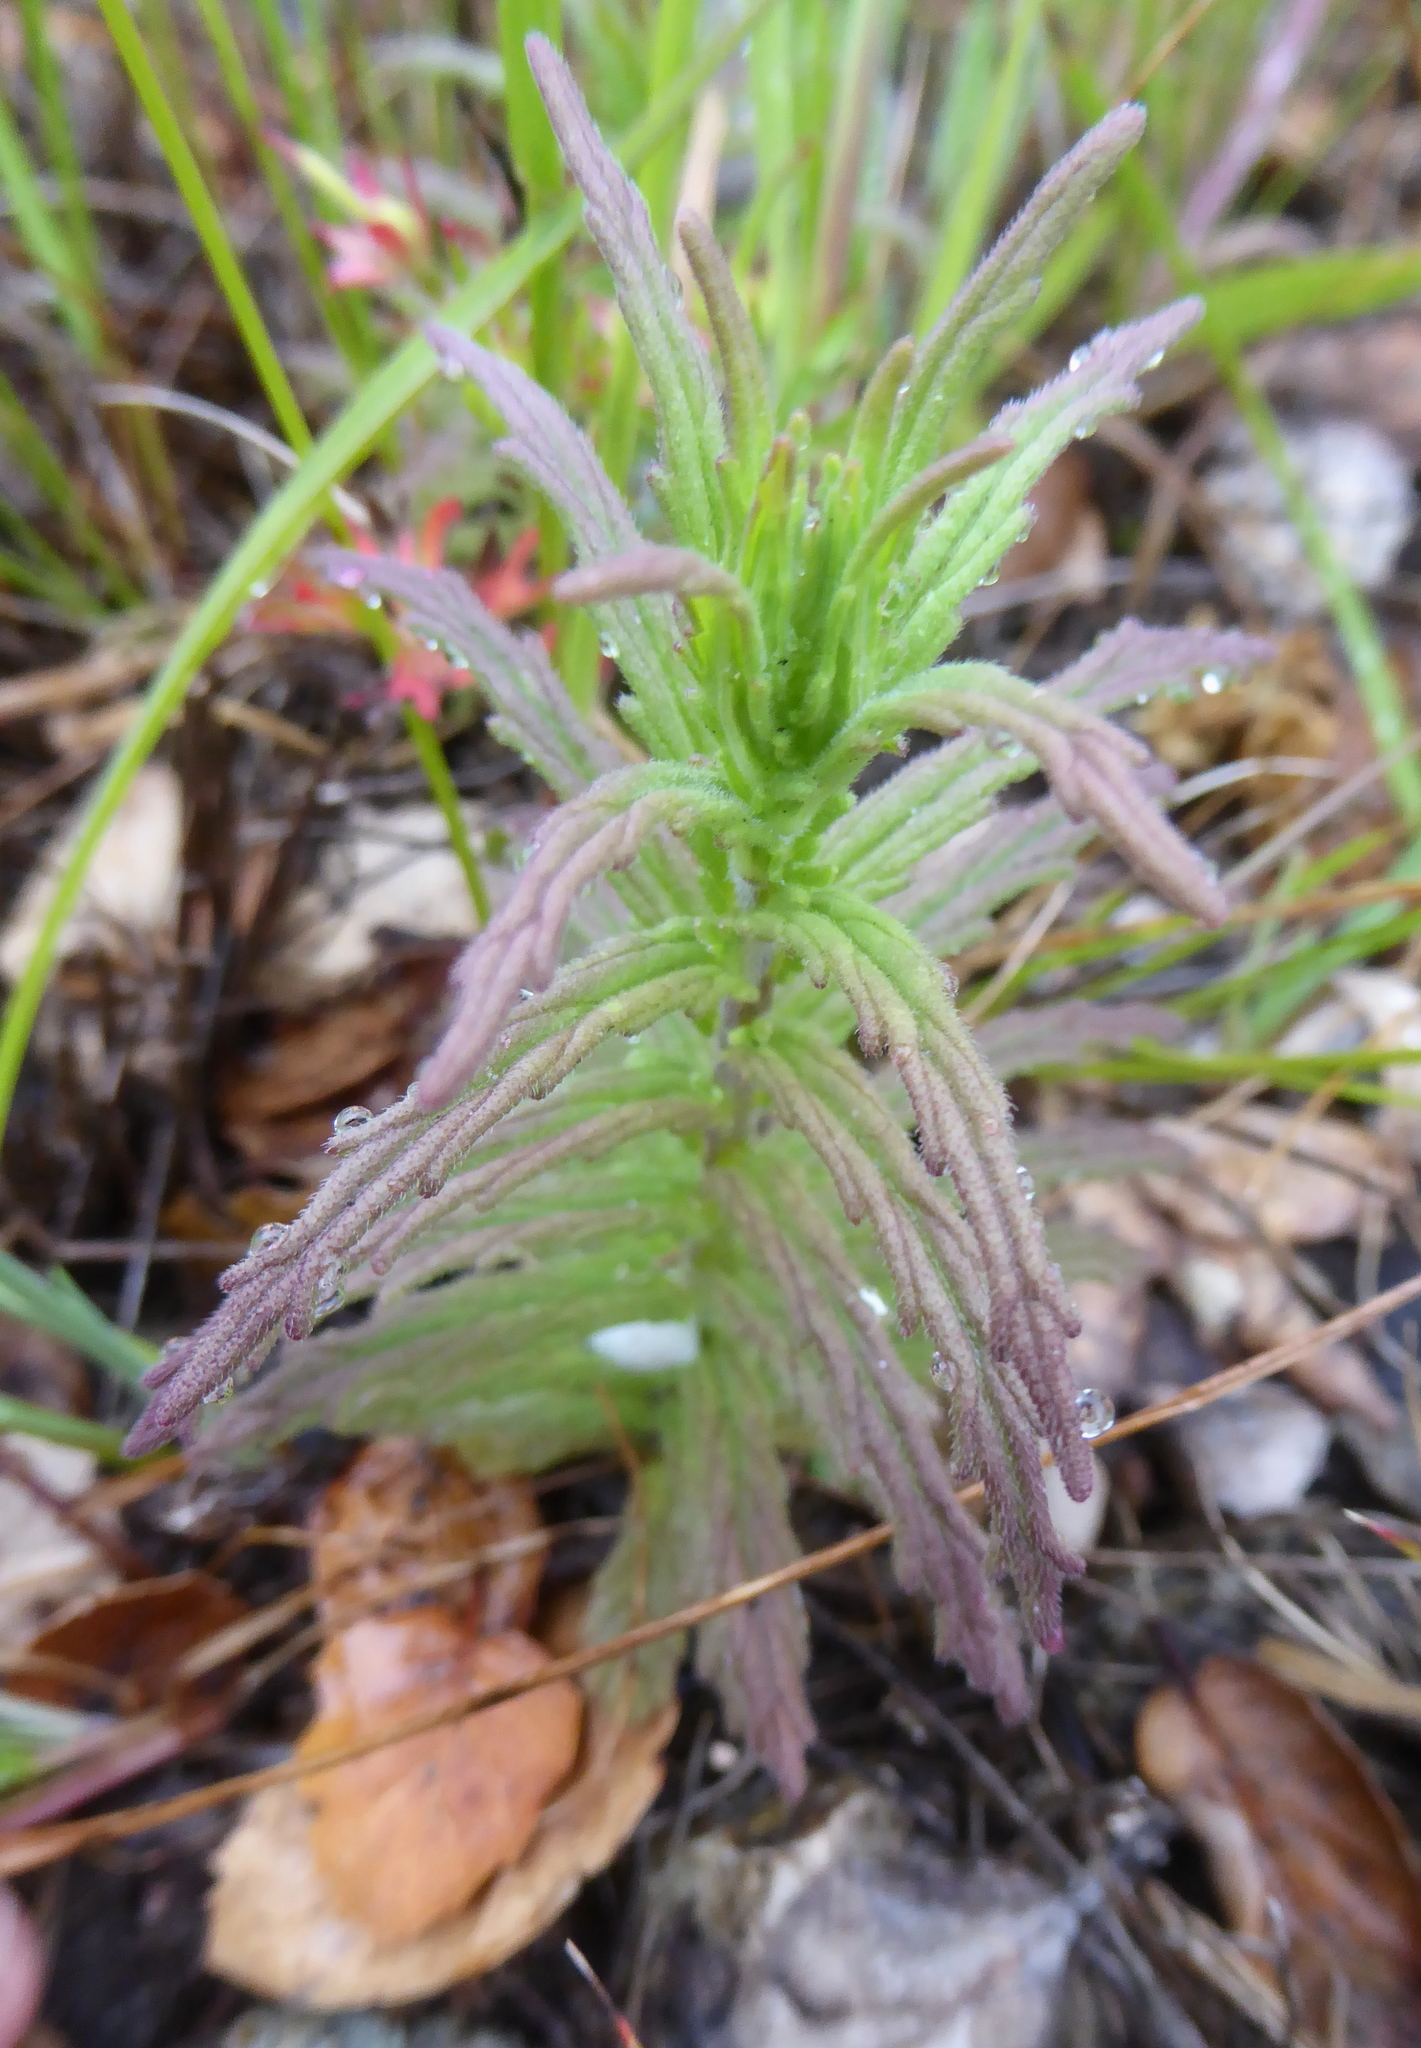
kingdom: Plantae
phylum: Tracheophyta
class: Magnoliopsida
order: Lamiales
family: Orobanchaceae
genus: Bellardia
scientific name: Bellardia trixago
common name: Mediterranean lineseed
